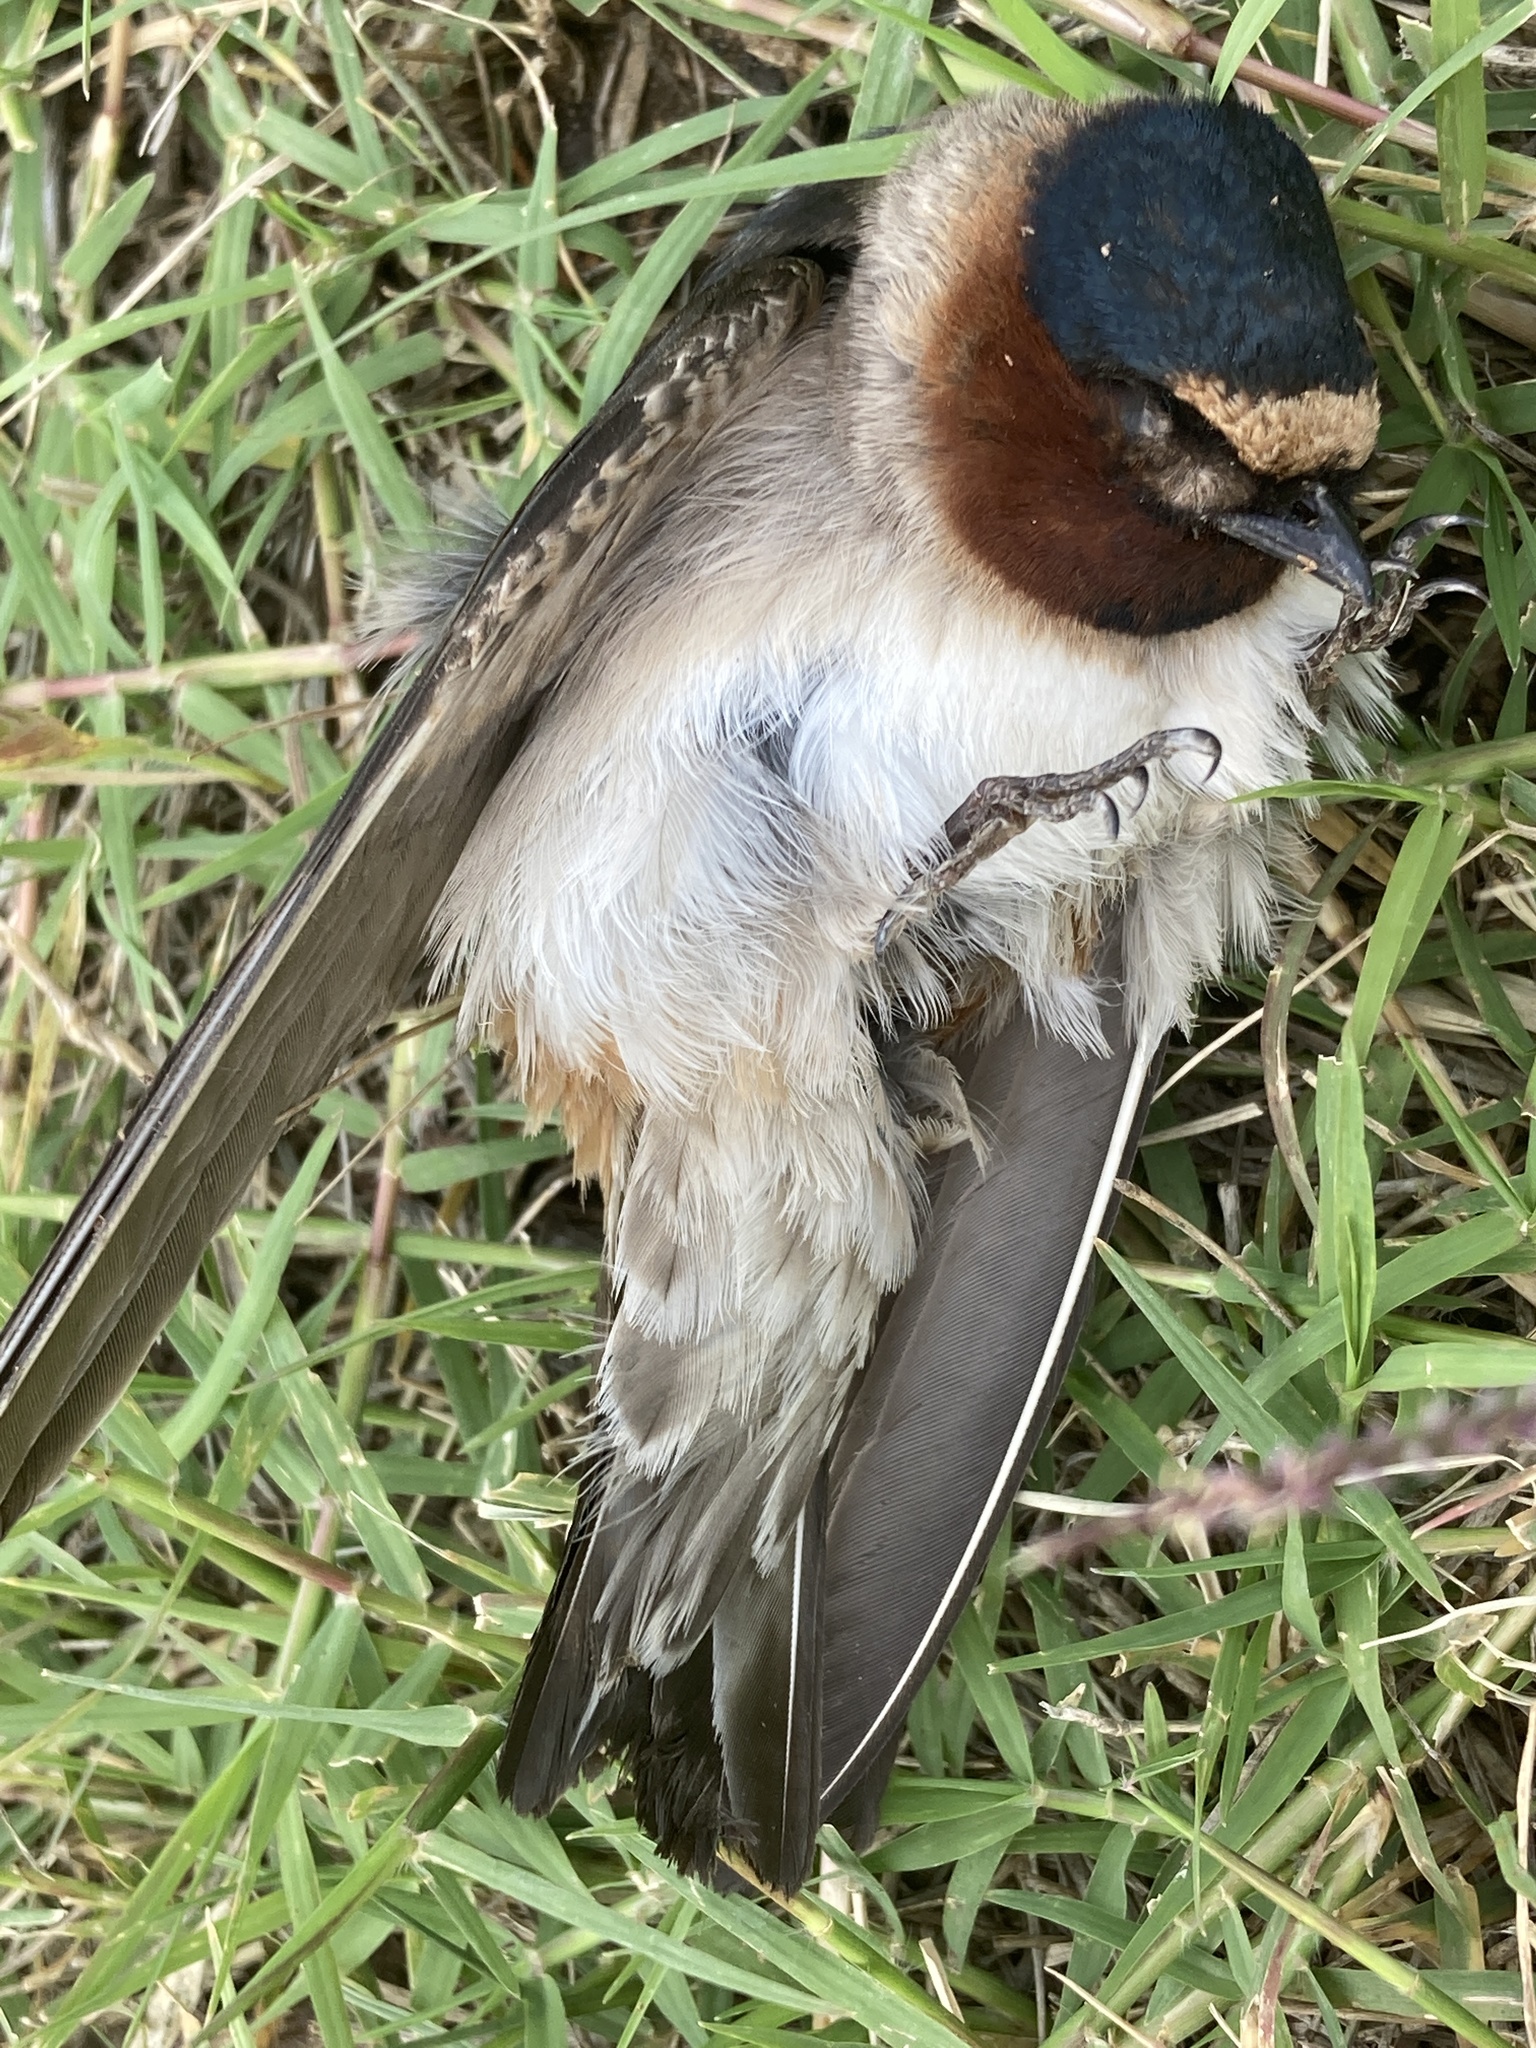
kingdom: Animalia
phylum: Chordata
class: Aves
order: Passeriformes
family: Hirundinidae
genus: Petrochelidon
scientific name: Petrochelidon pyrrhonota
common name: American cliff swallow
